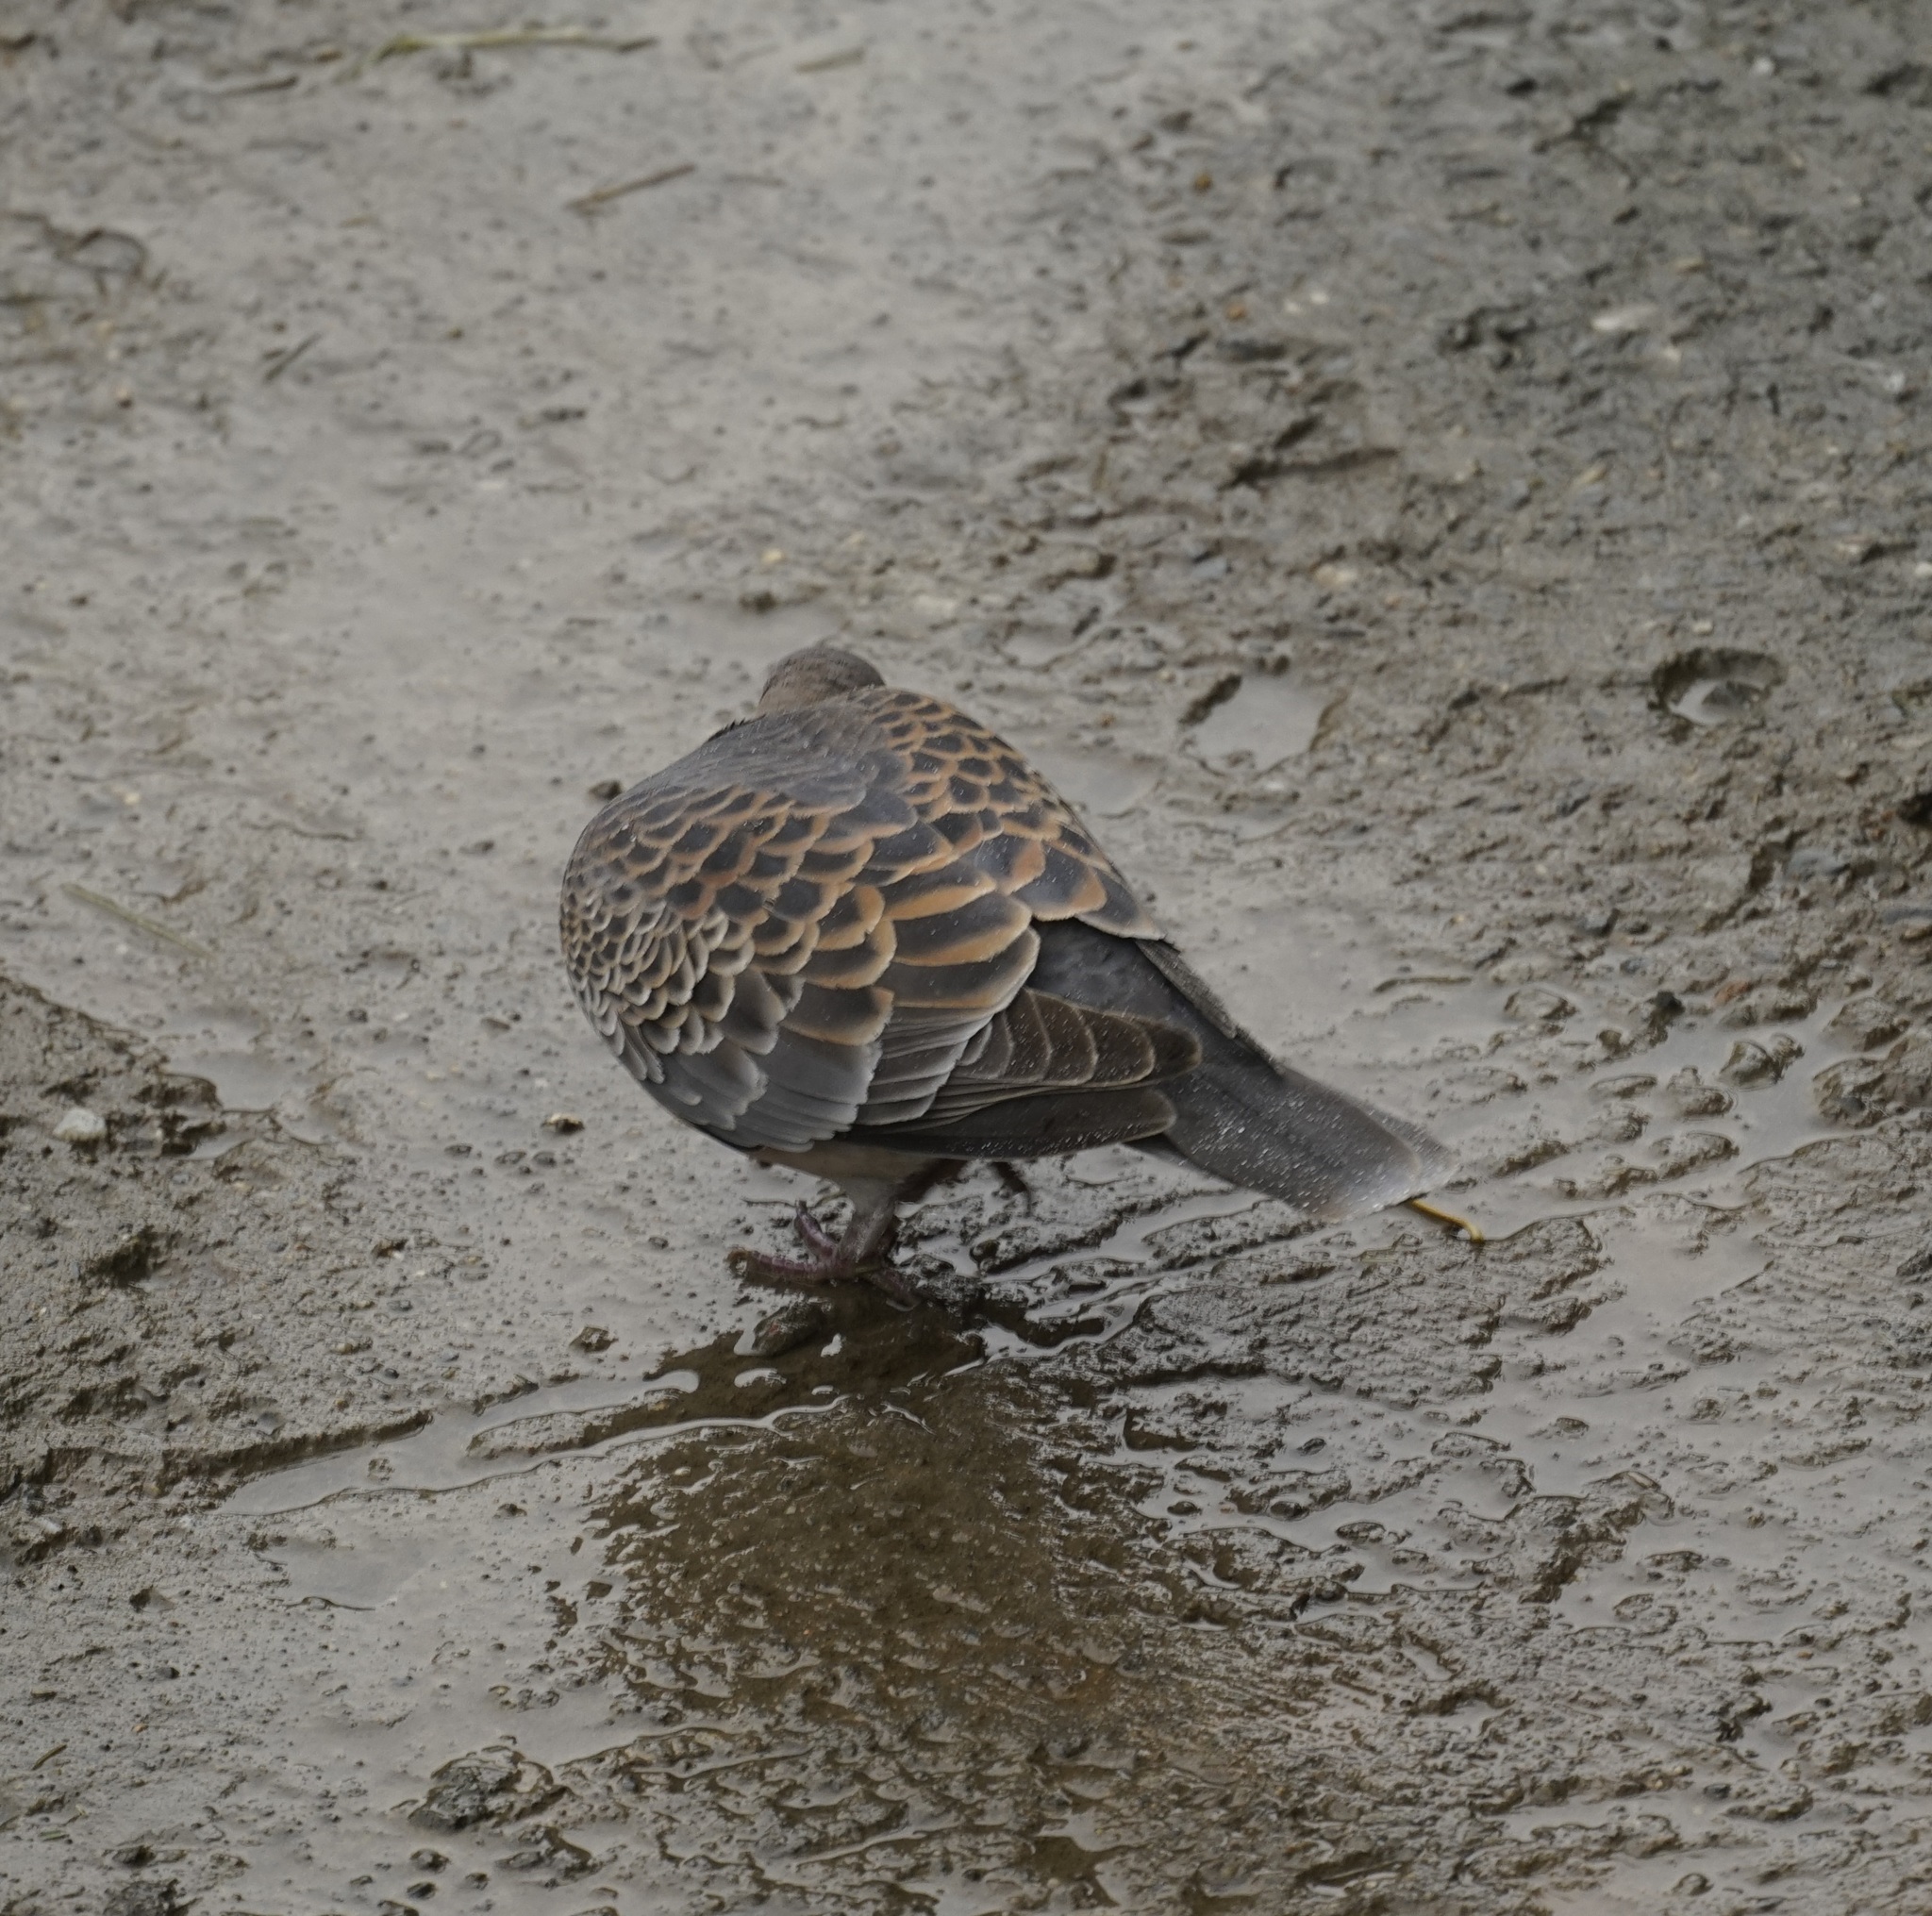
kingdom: Animalia
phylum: Chordata
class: Aves
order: Columbiformes
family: Columbidae
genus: Streptopelia
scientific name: Streptopelia orientalis
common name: Oriental turtle dove
